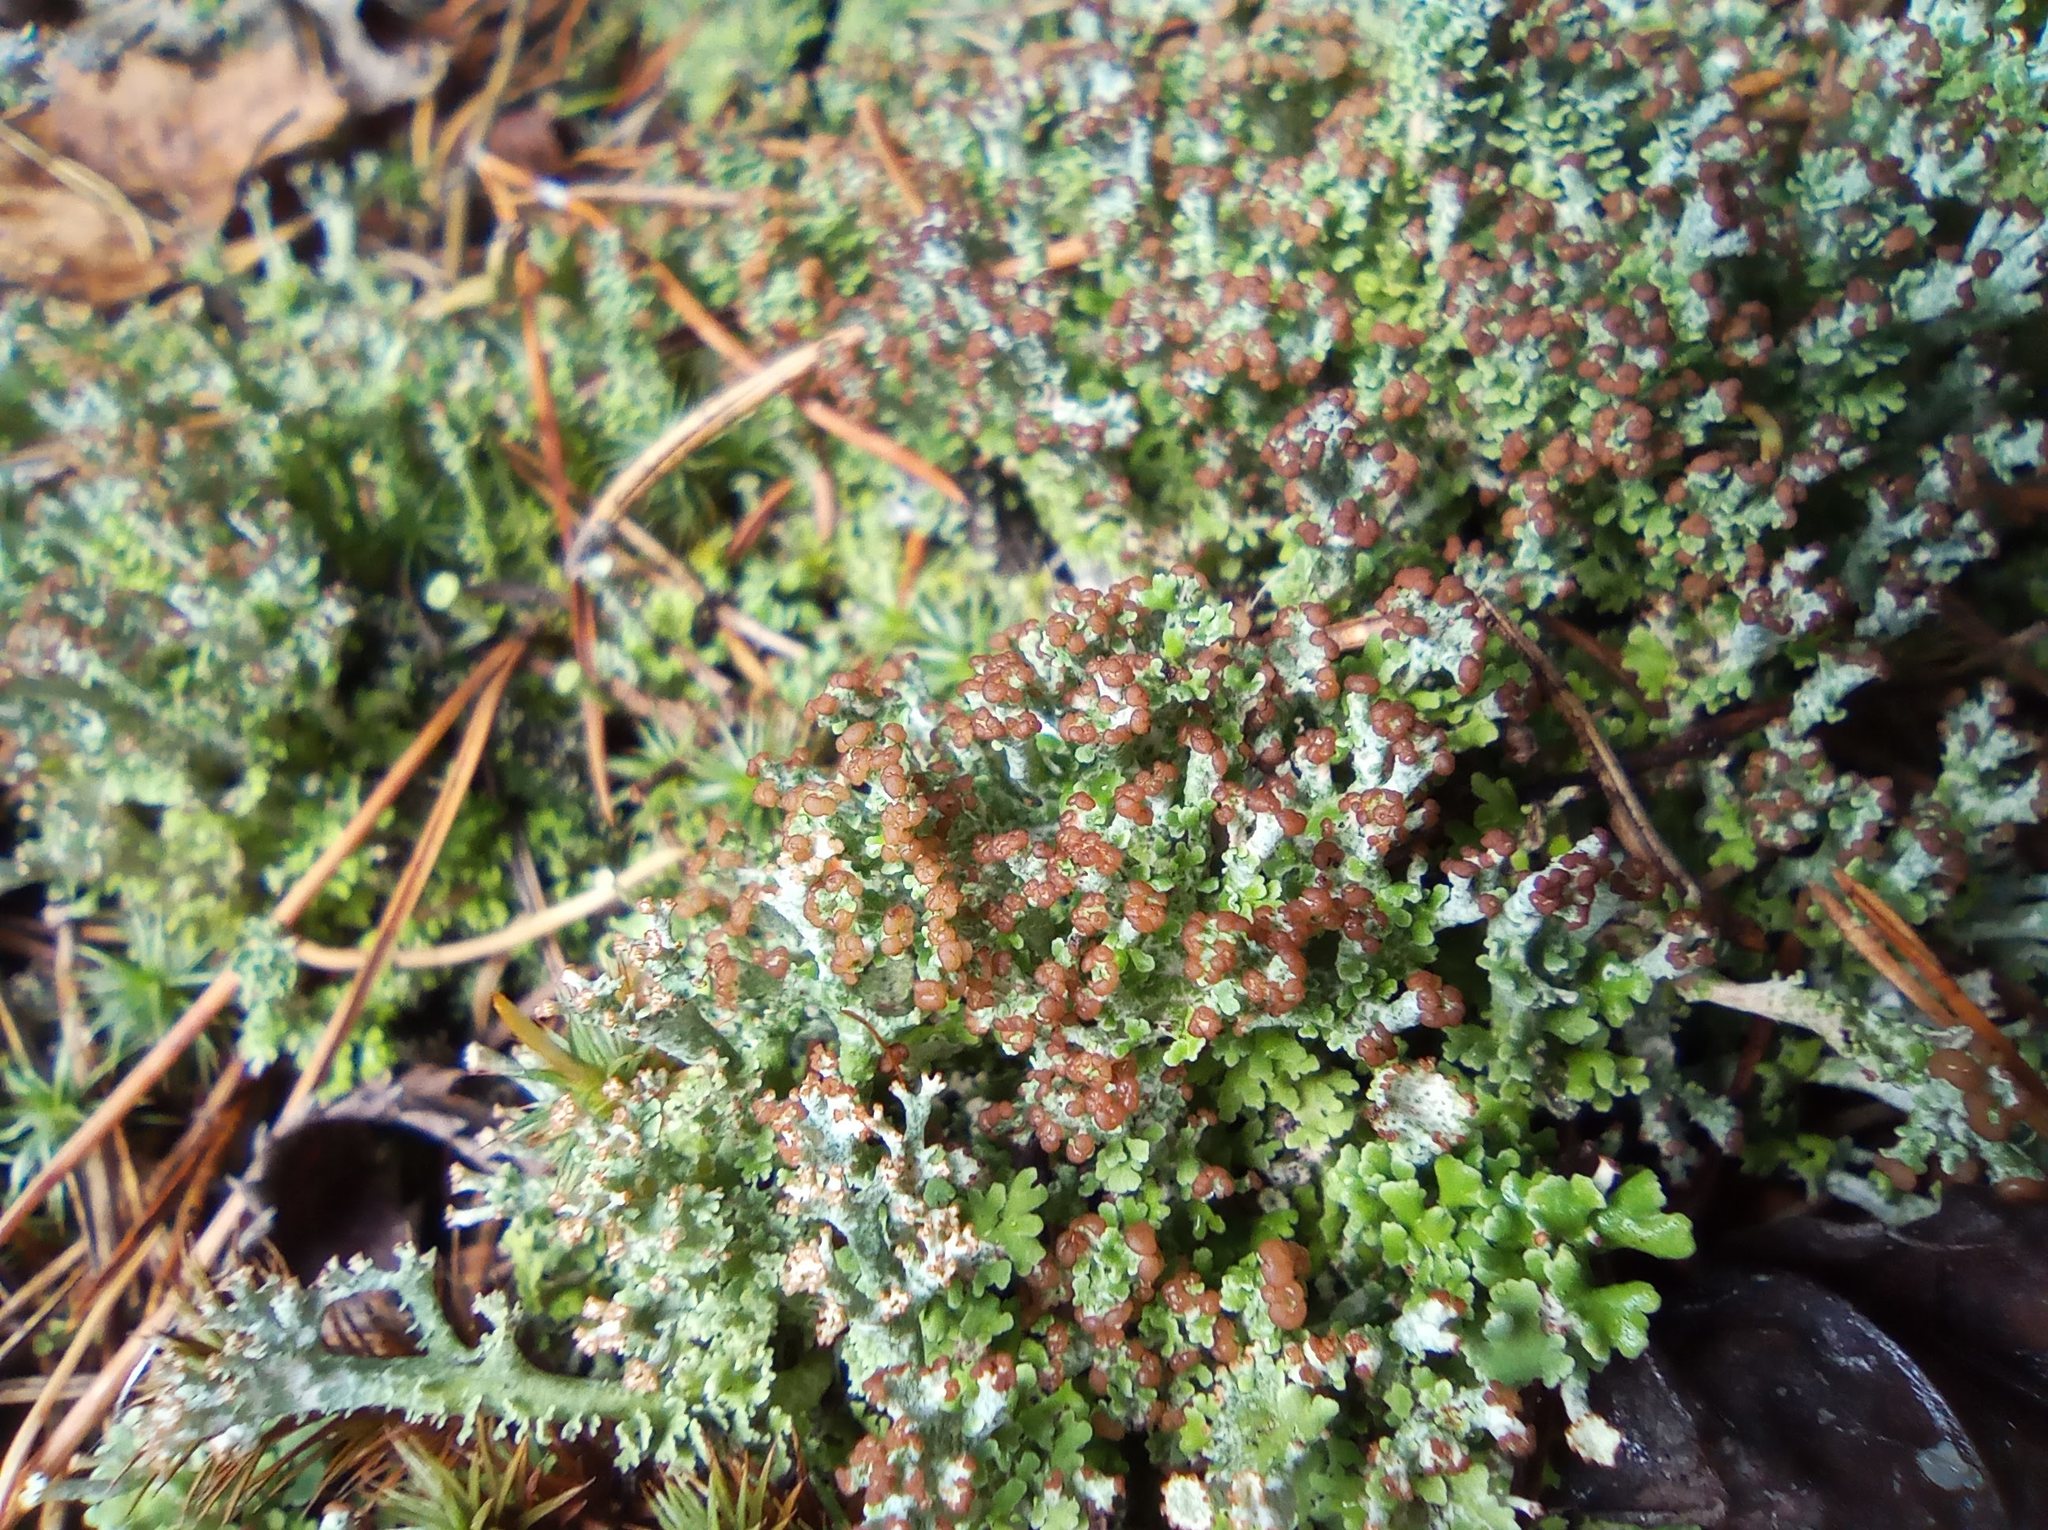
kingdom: Fungi
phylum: Ascomycota
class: Lecanoromycetes
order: Lecanorales
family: Cladoniaceae
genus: Cladonia
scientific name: Cladonia gracilis
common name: Smooth clad lichen
